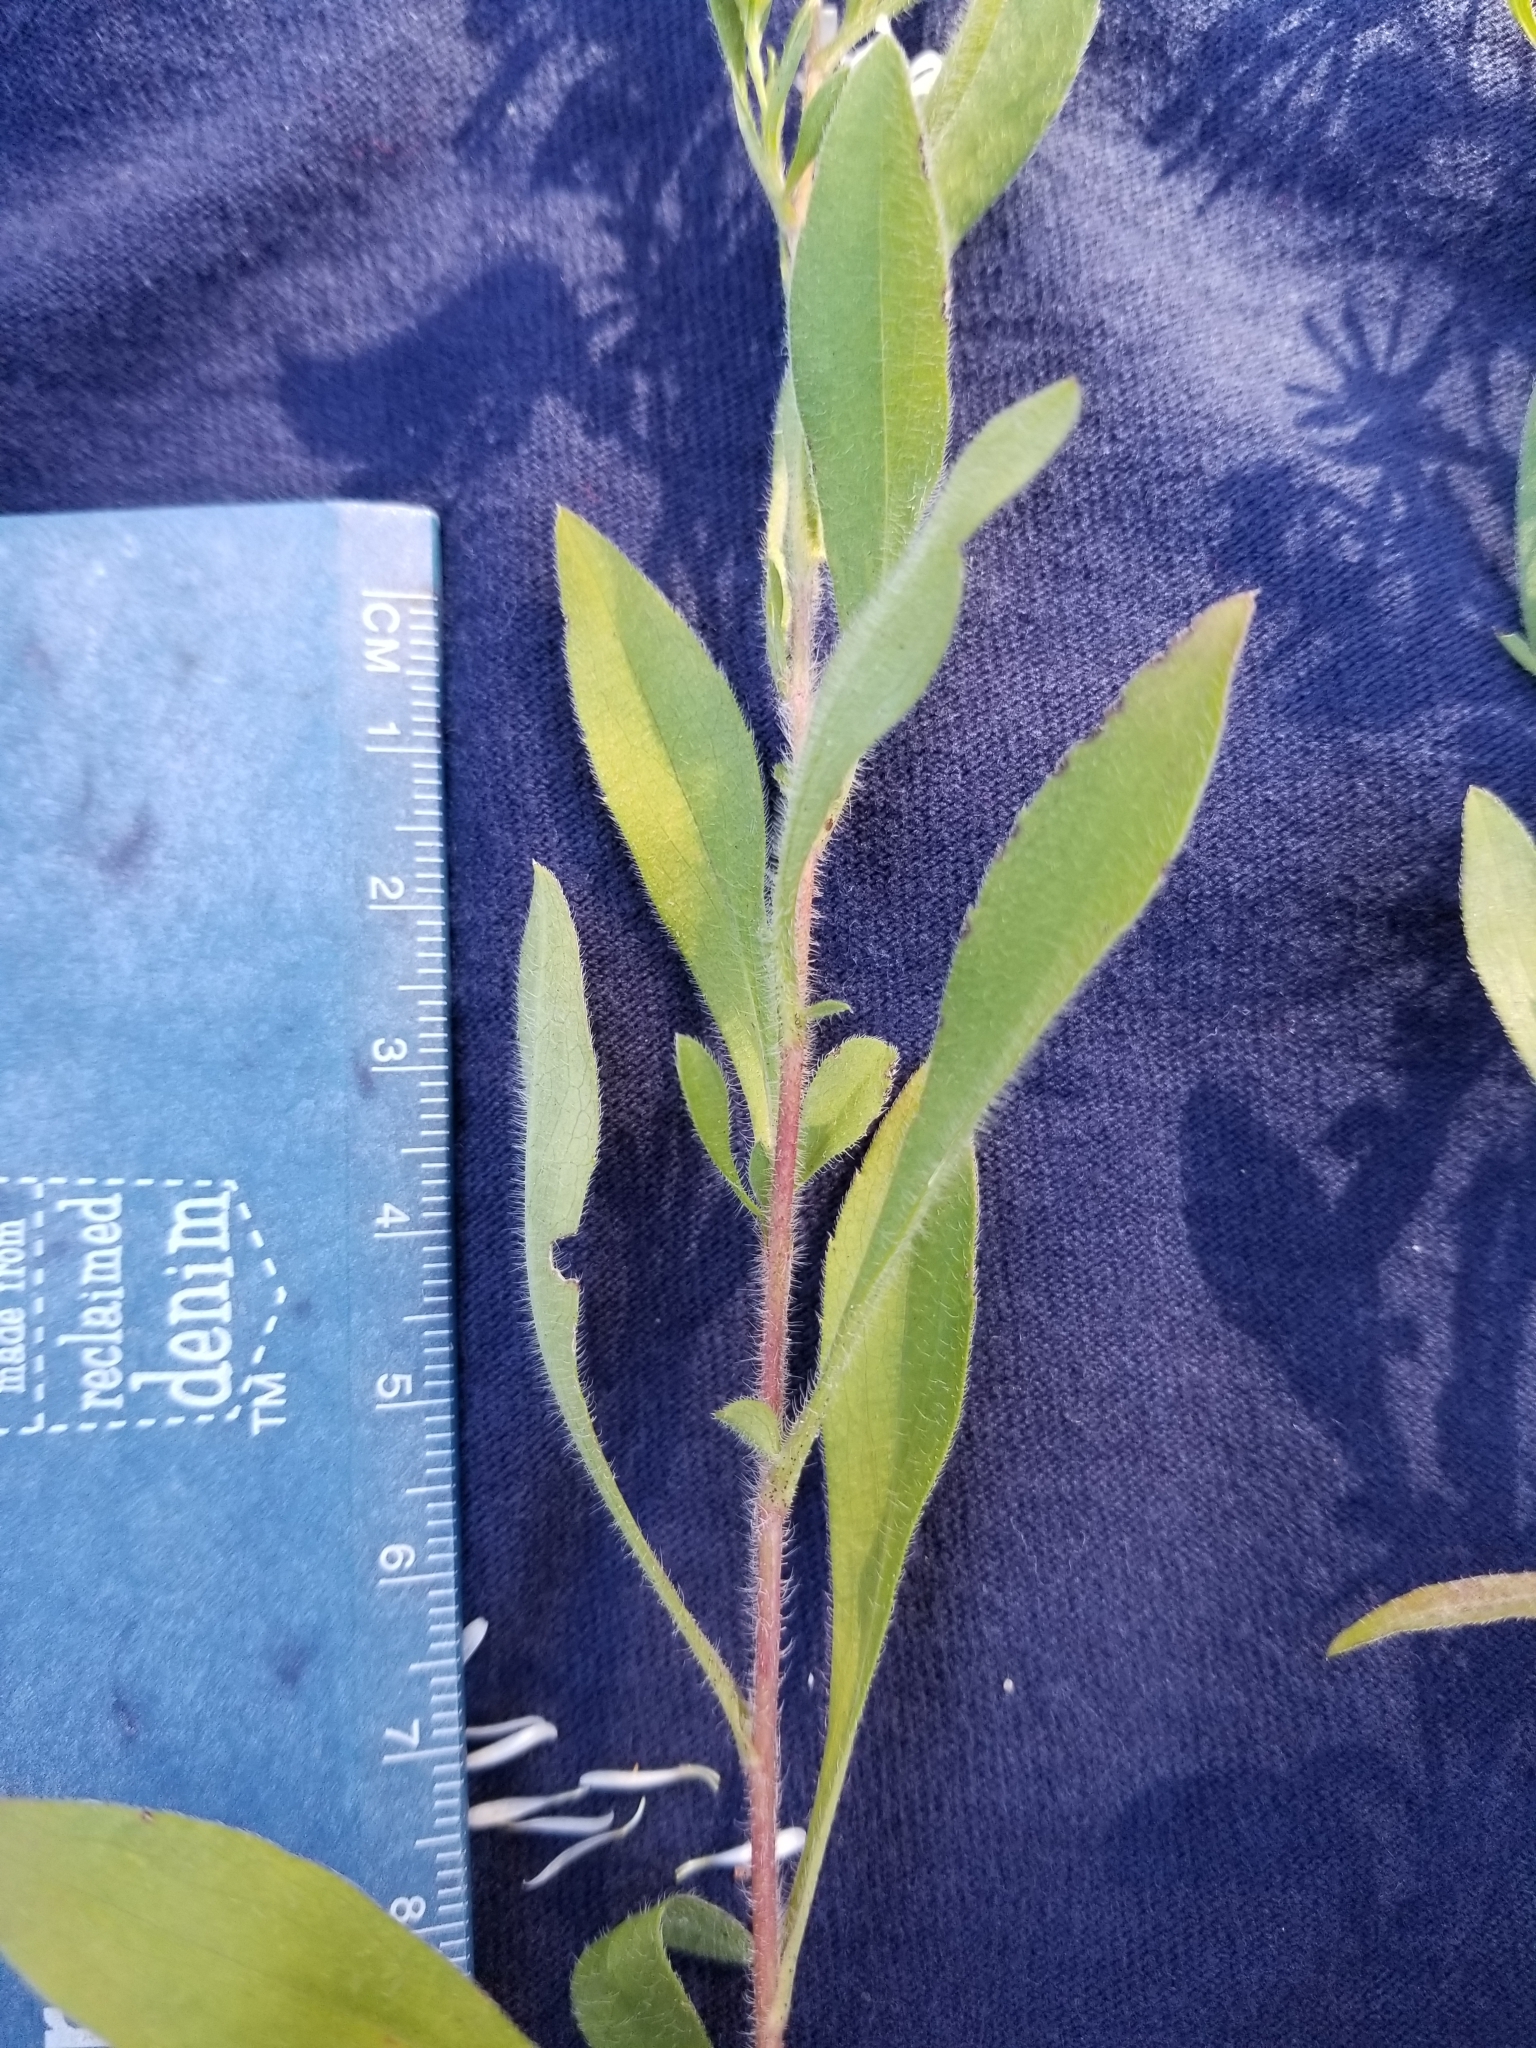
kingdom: Plantae
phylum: Tracheophyta
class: Magnoliopsida
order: Asterales
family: Asteraceae
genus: Symphyotrichum
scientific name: Symphyotrichum pilosum
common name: Awl aster
